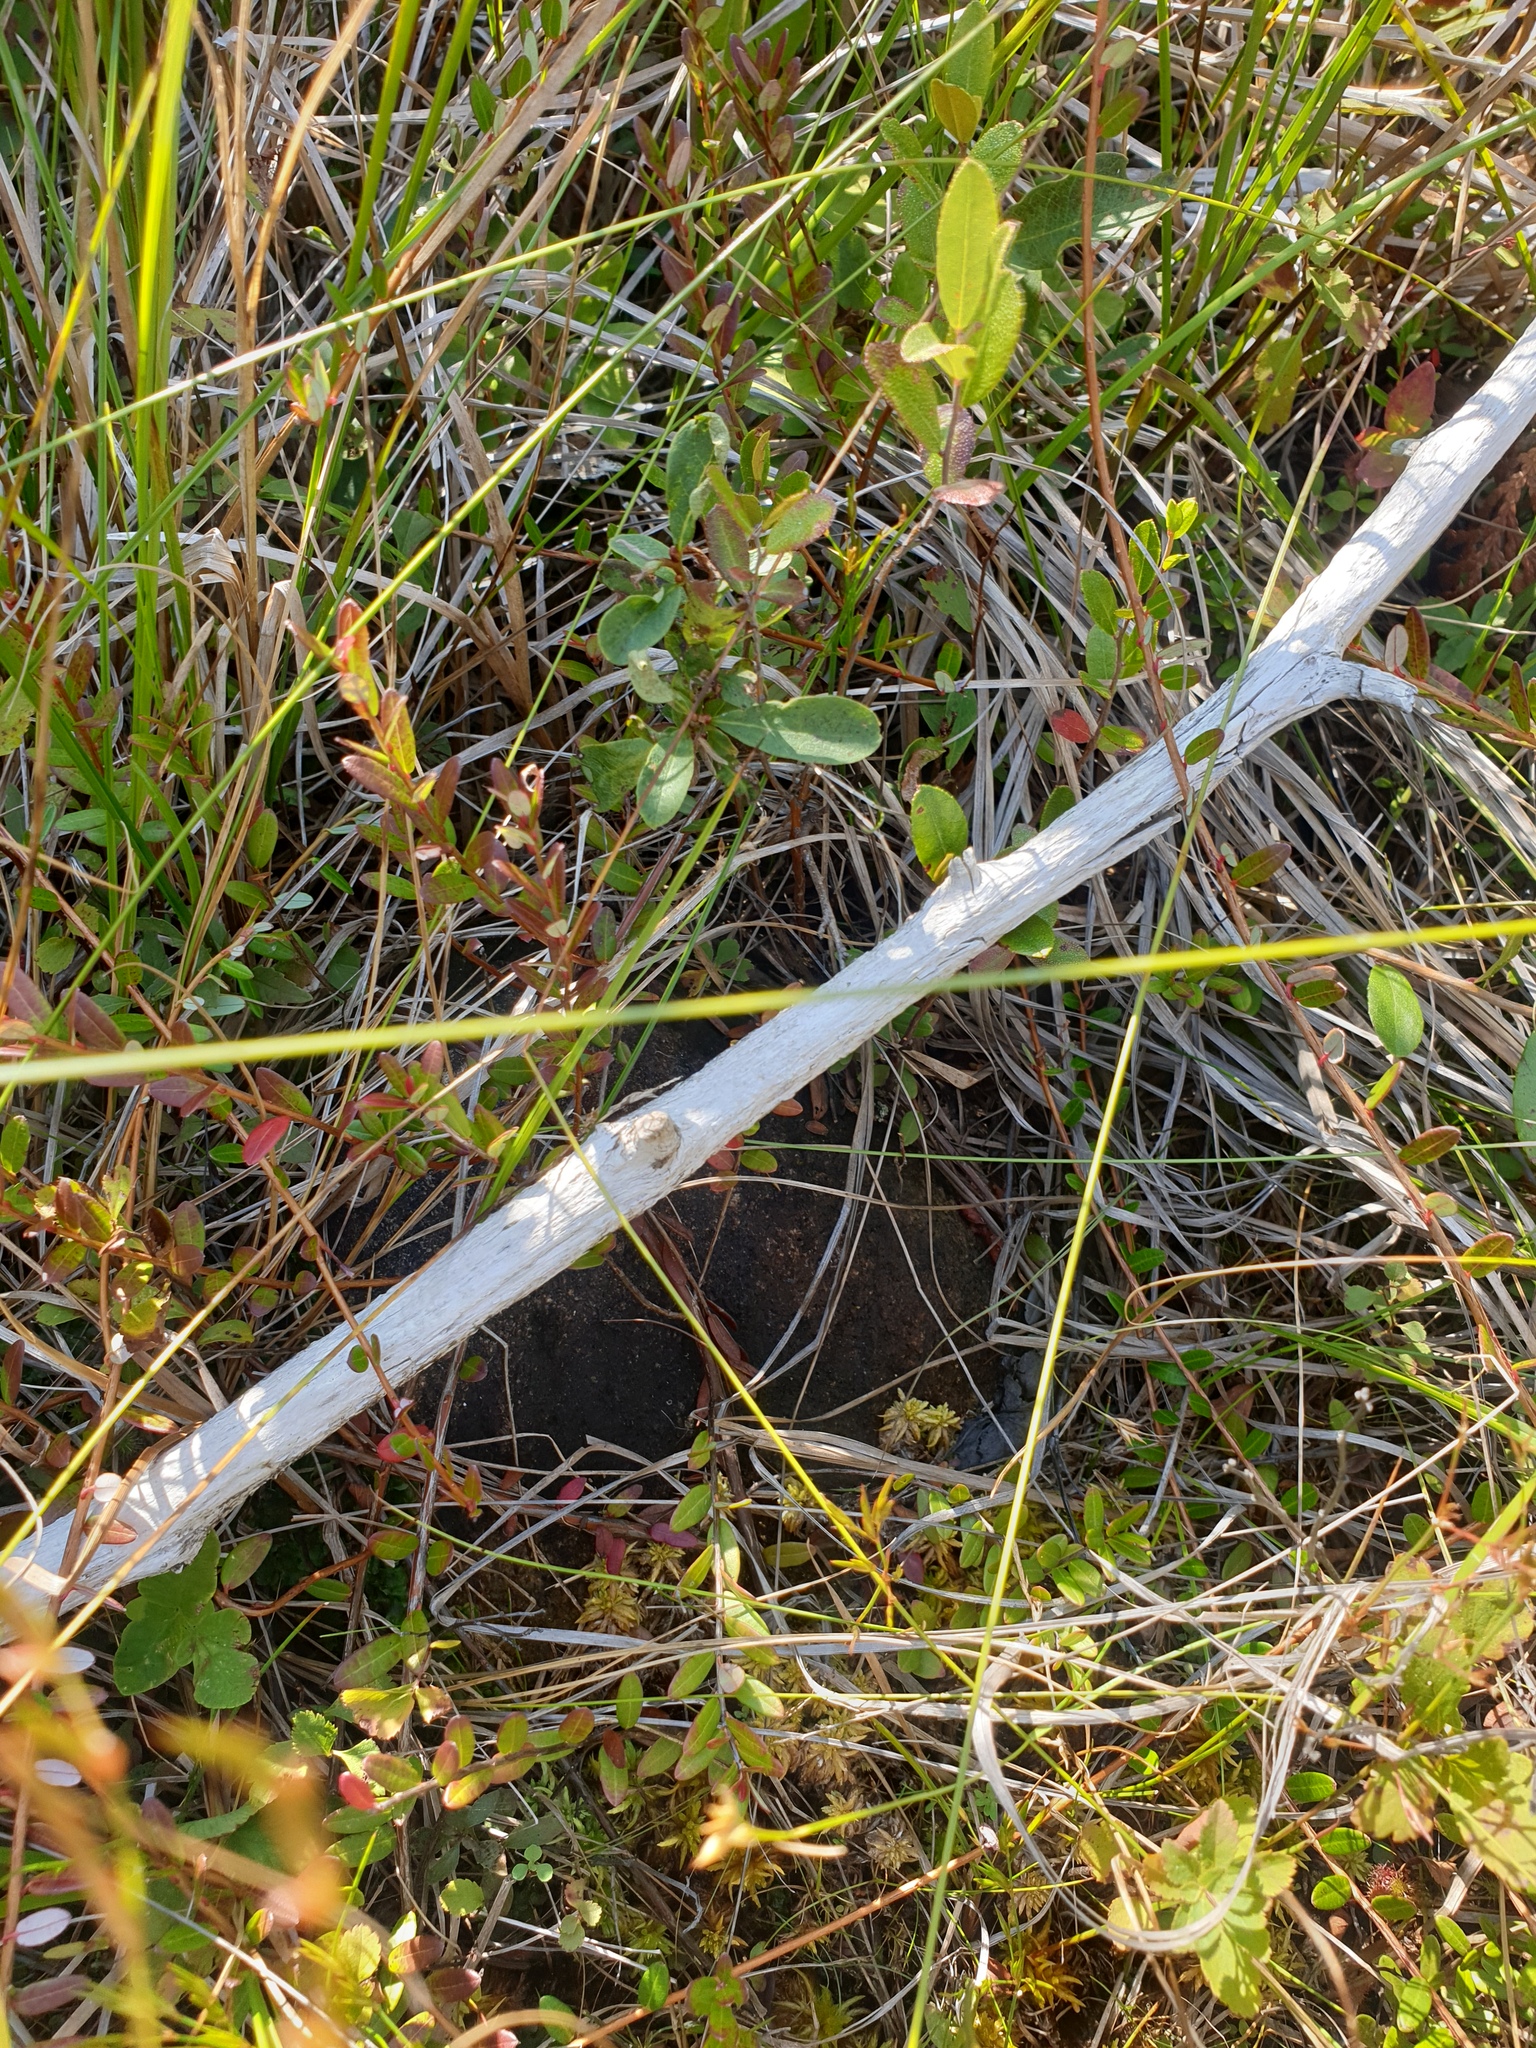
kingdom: Plantae
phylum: Tracheophyta
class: Magnoliopsida
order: Ericales
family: Ericaceae
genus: Vaccinium
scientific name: Vaccinium macrocarpon
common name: American cranberry
